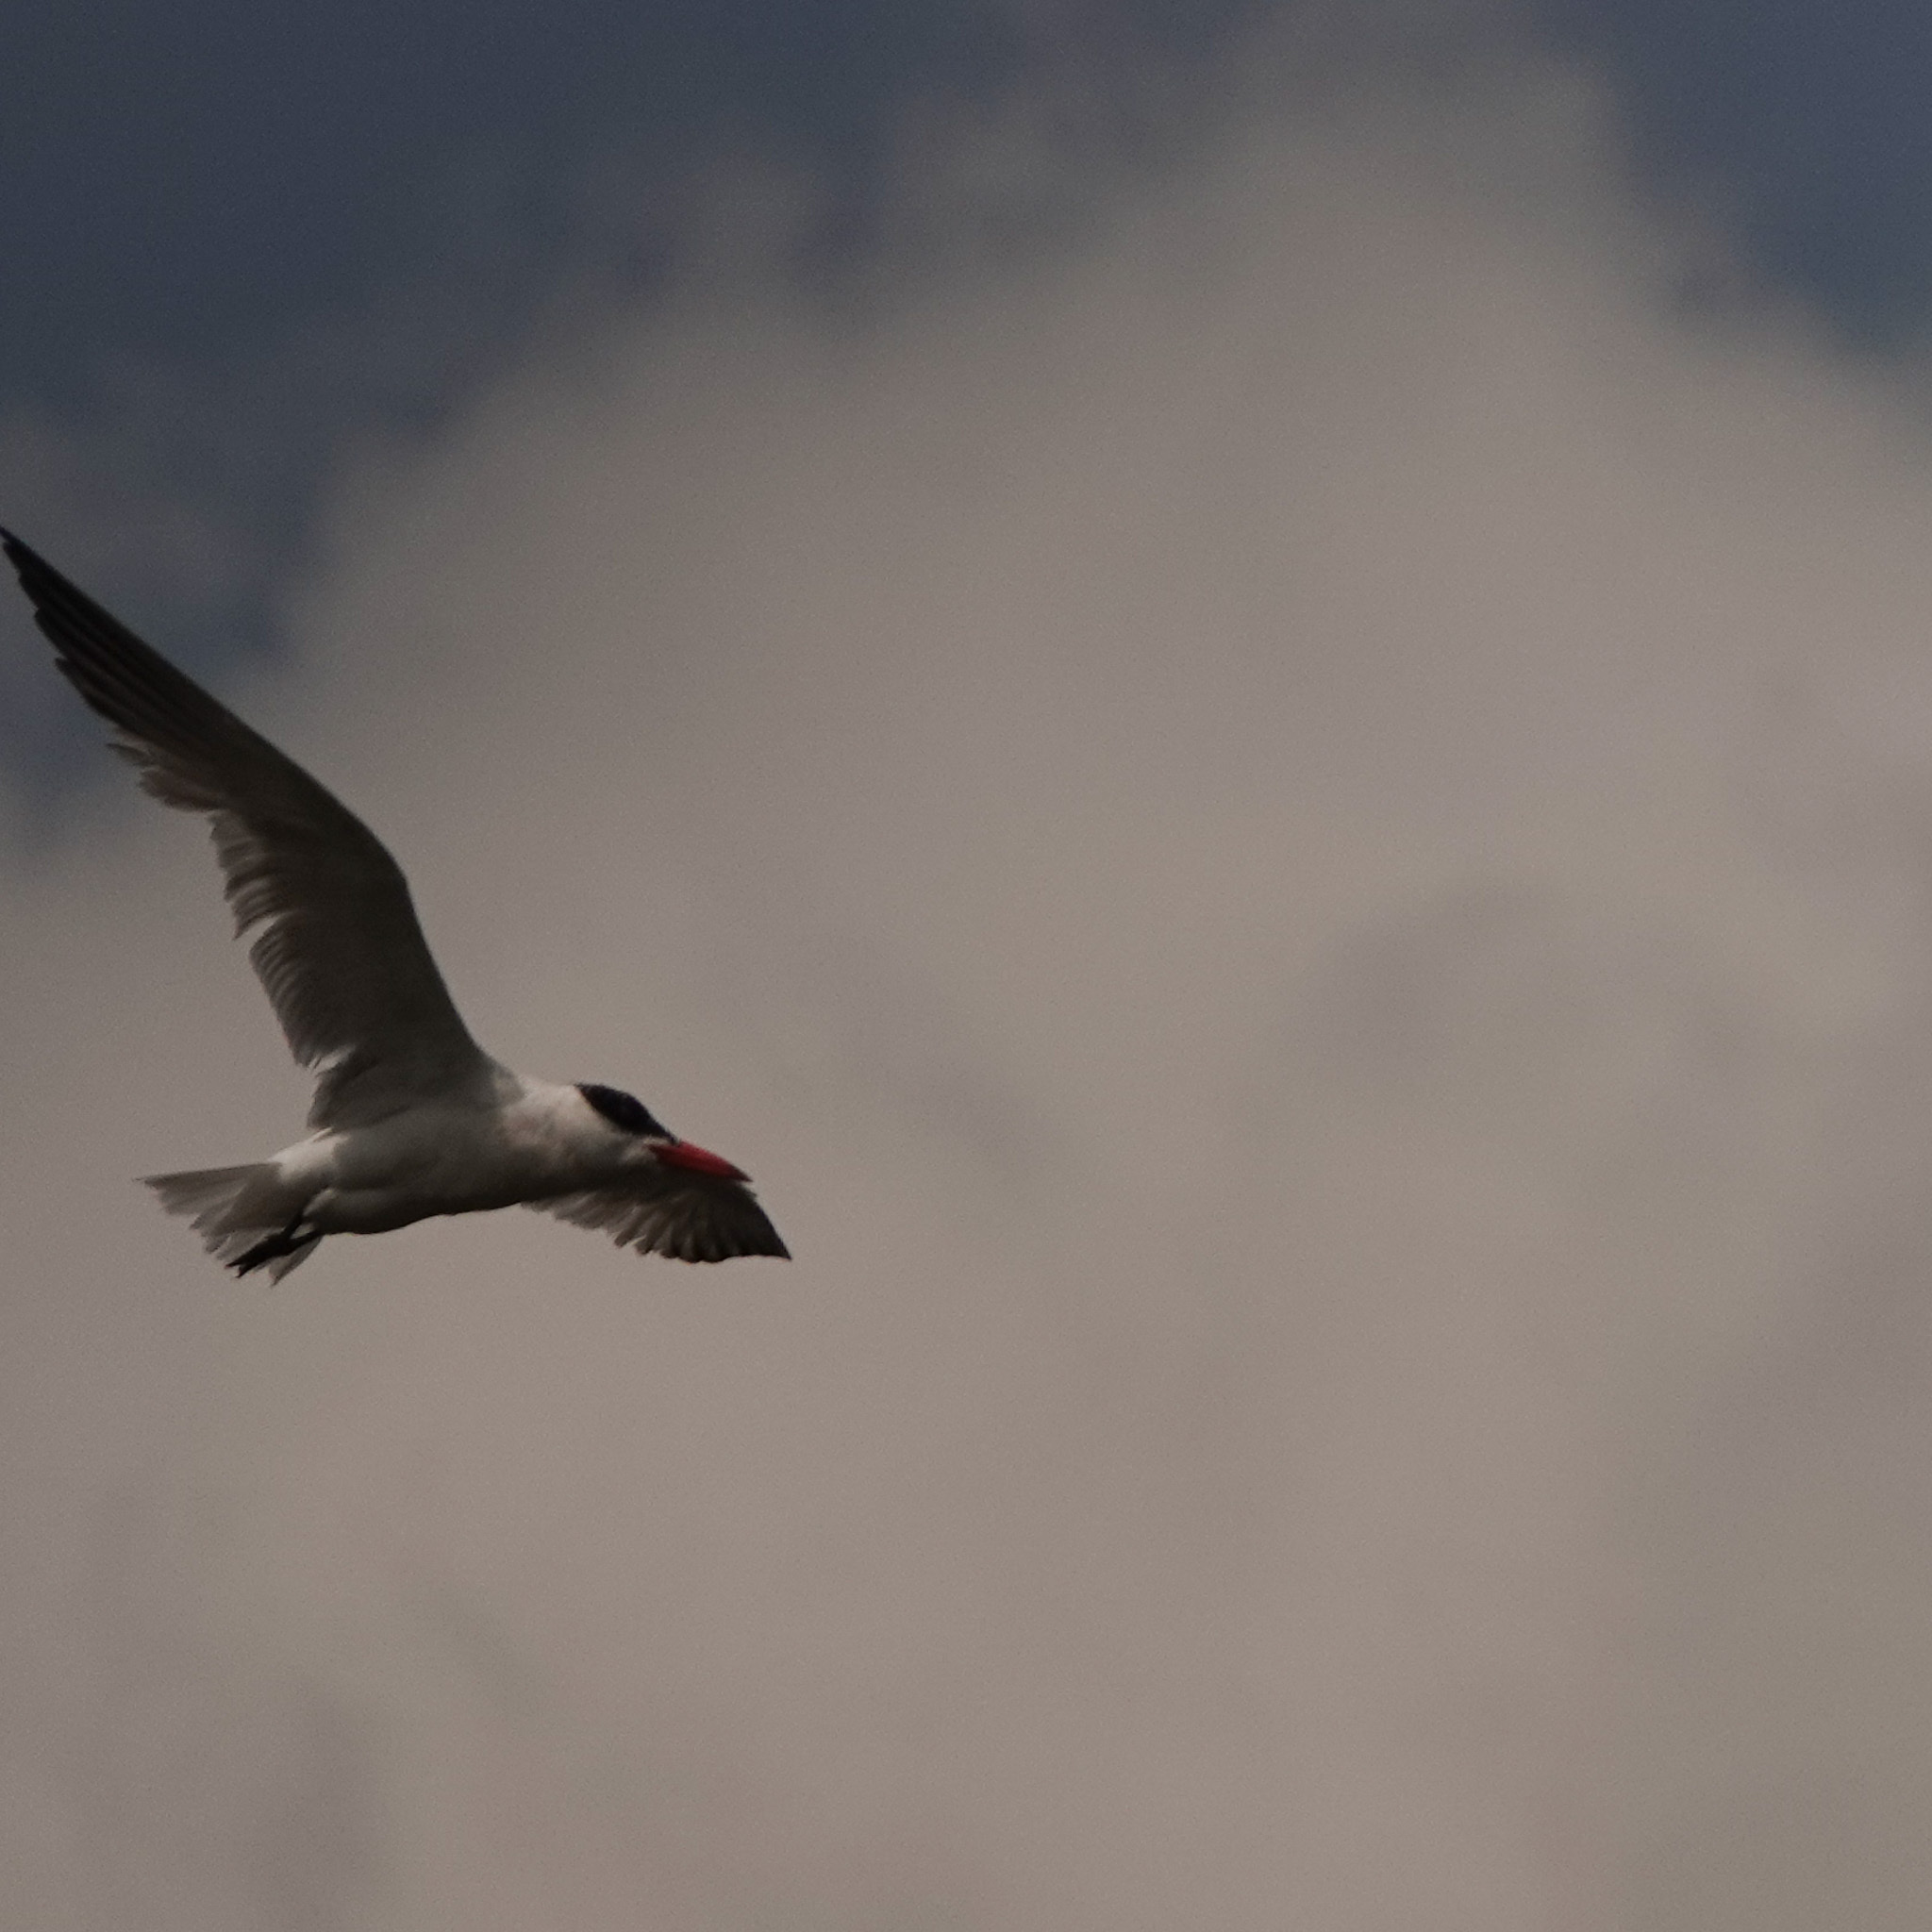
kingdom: Animalia
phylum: Chordata
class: Aves
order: Charadriiformes
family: Laridae
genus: Hydroprogne
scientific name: Hydroprogne caspia
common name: Caspian tern
